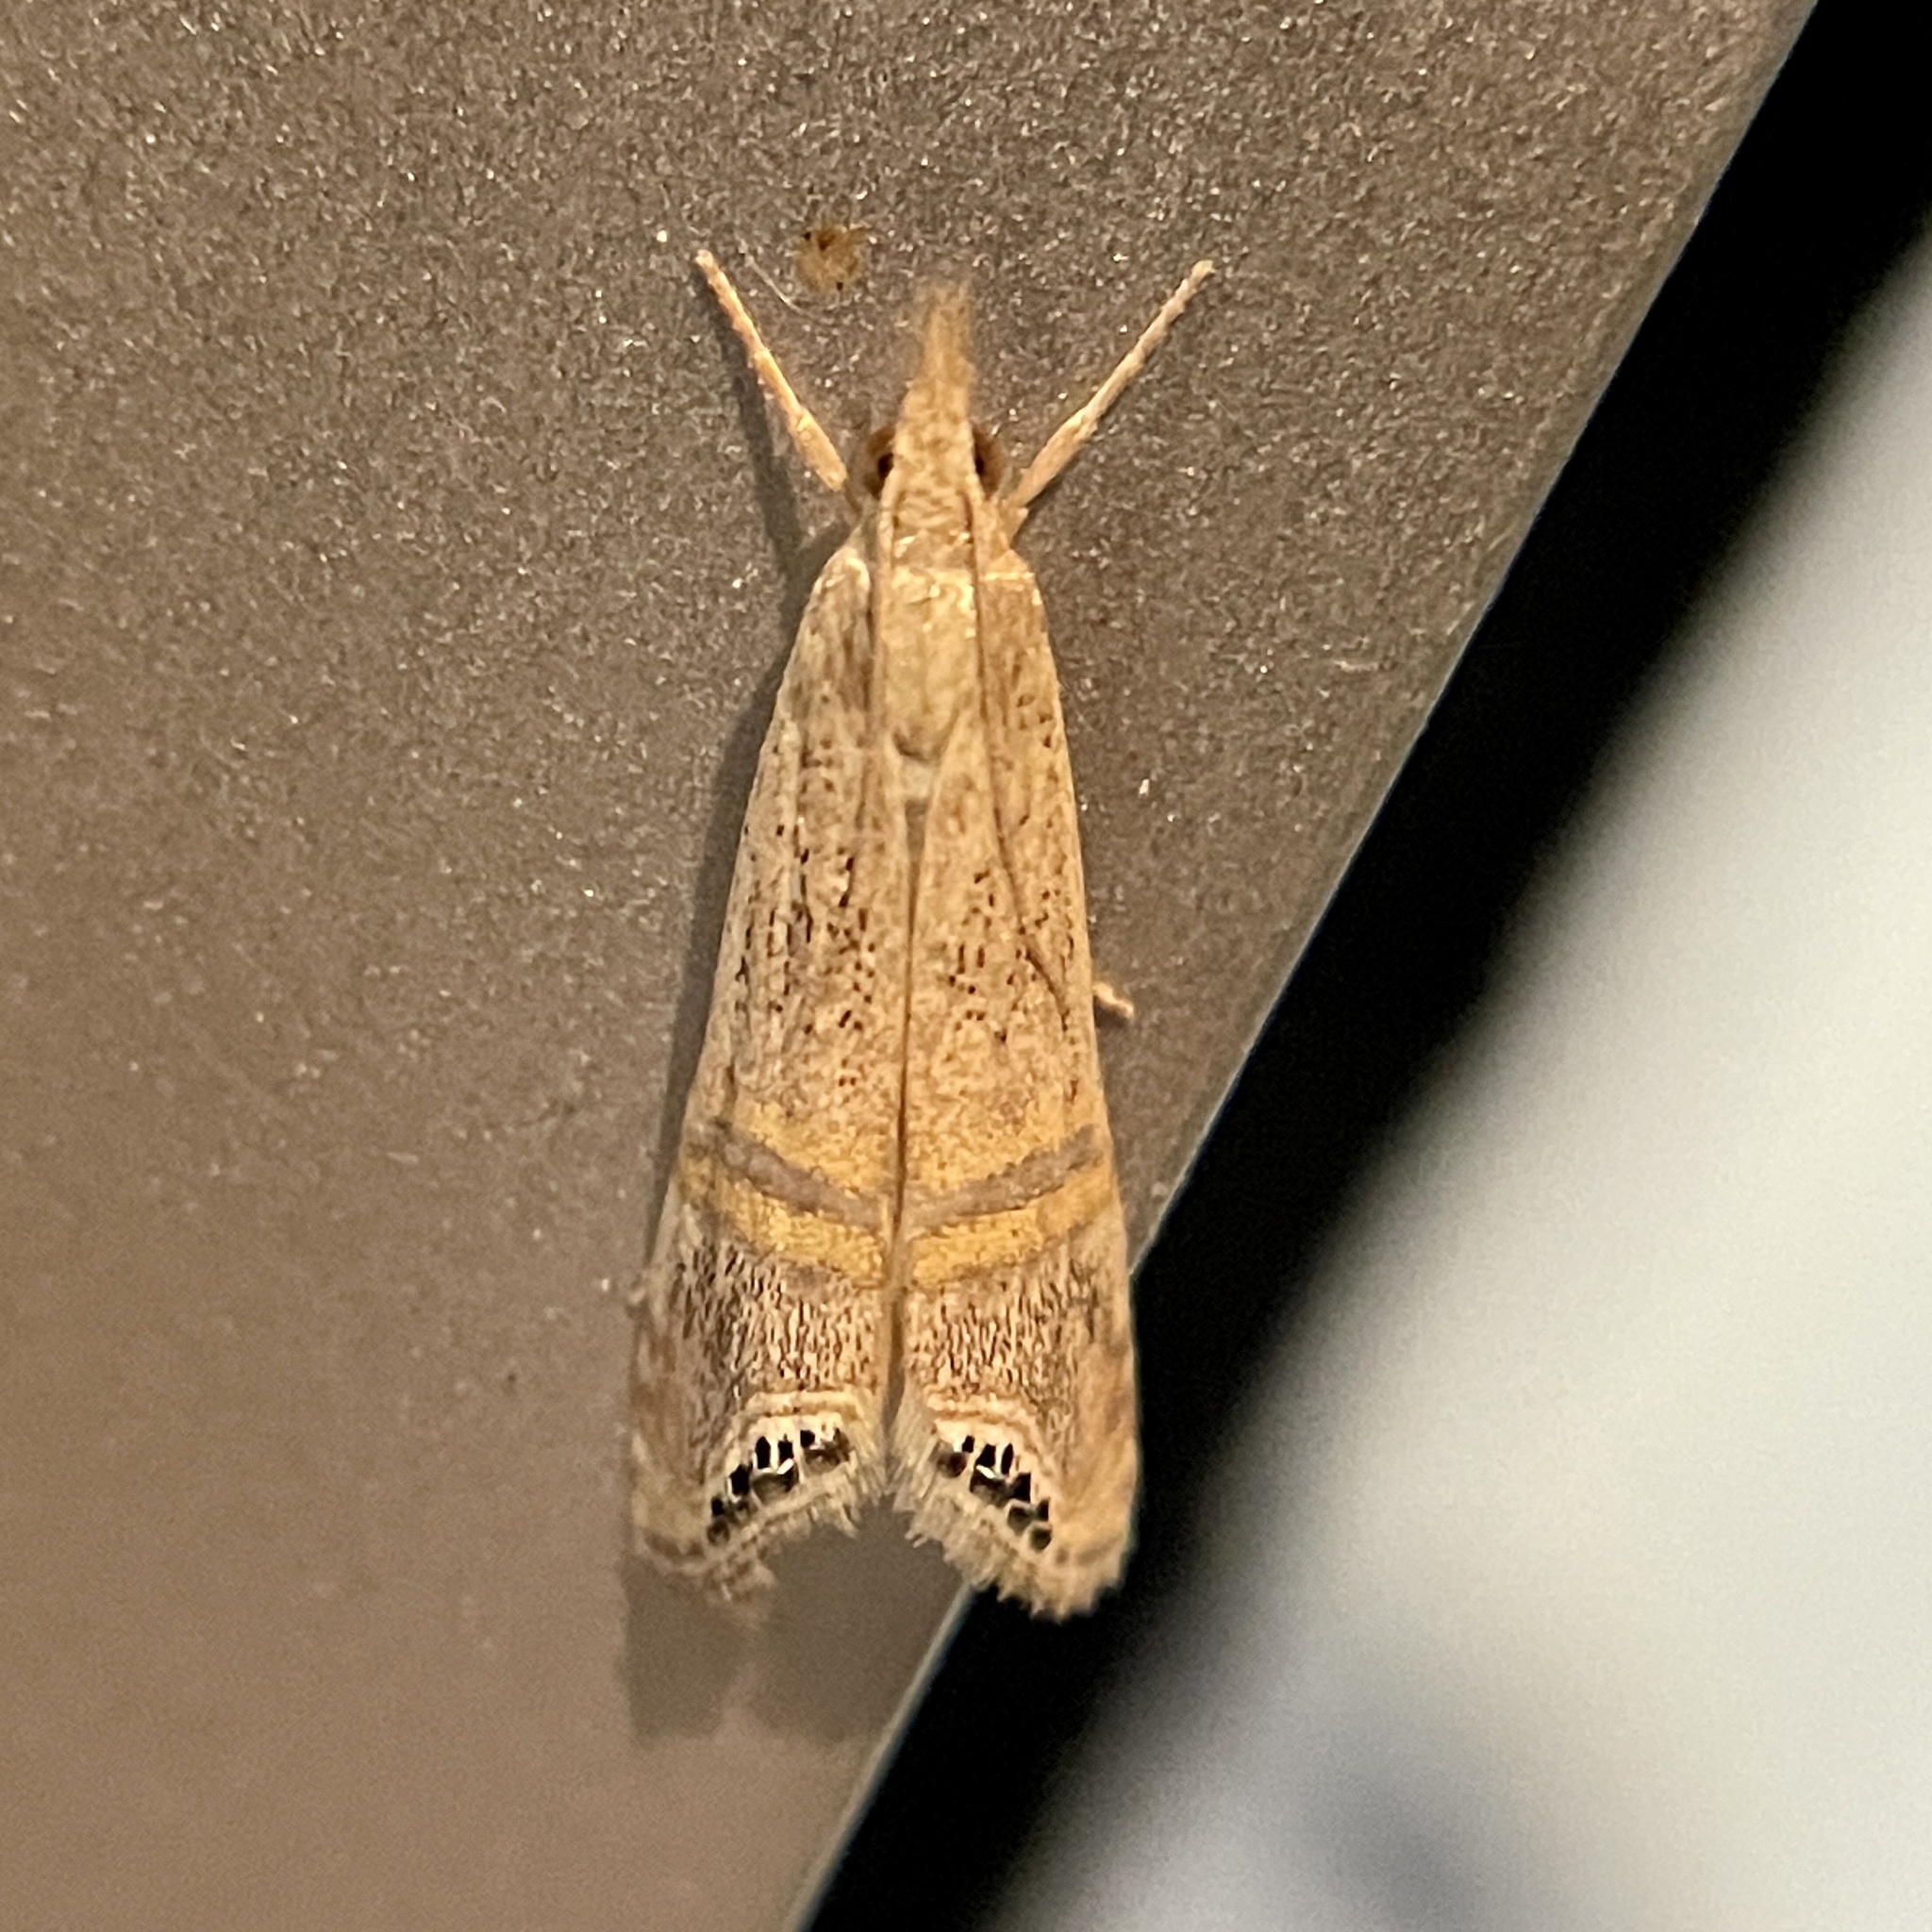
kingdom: Animalia
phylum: Arthropoda
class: Insecta
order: Lepidoptera
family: Crambidae
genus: Euchromius
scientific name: Euchromius ocellea
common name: Necklace veneer moth
